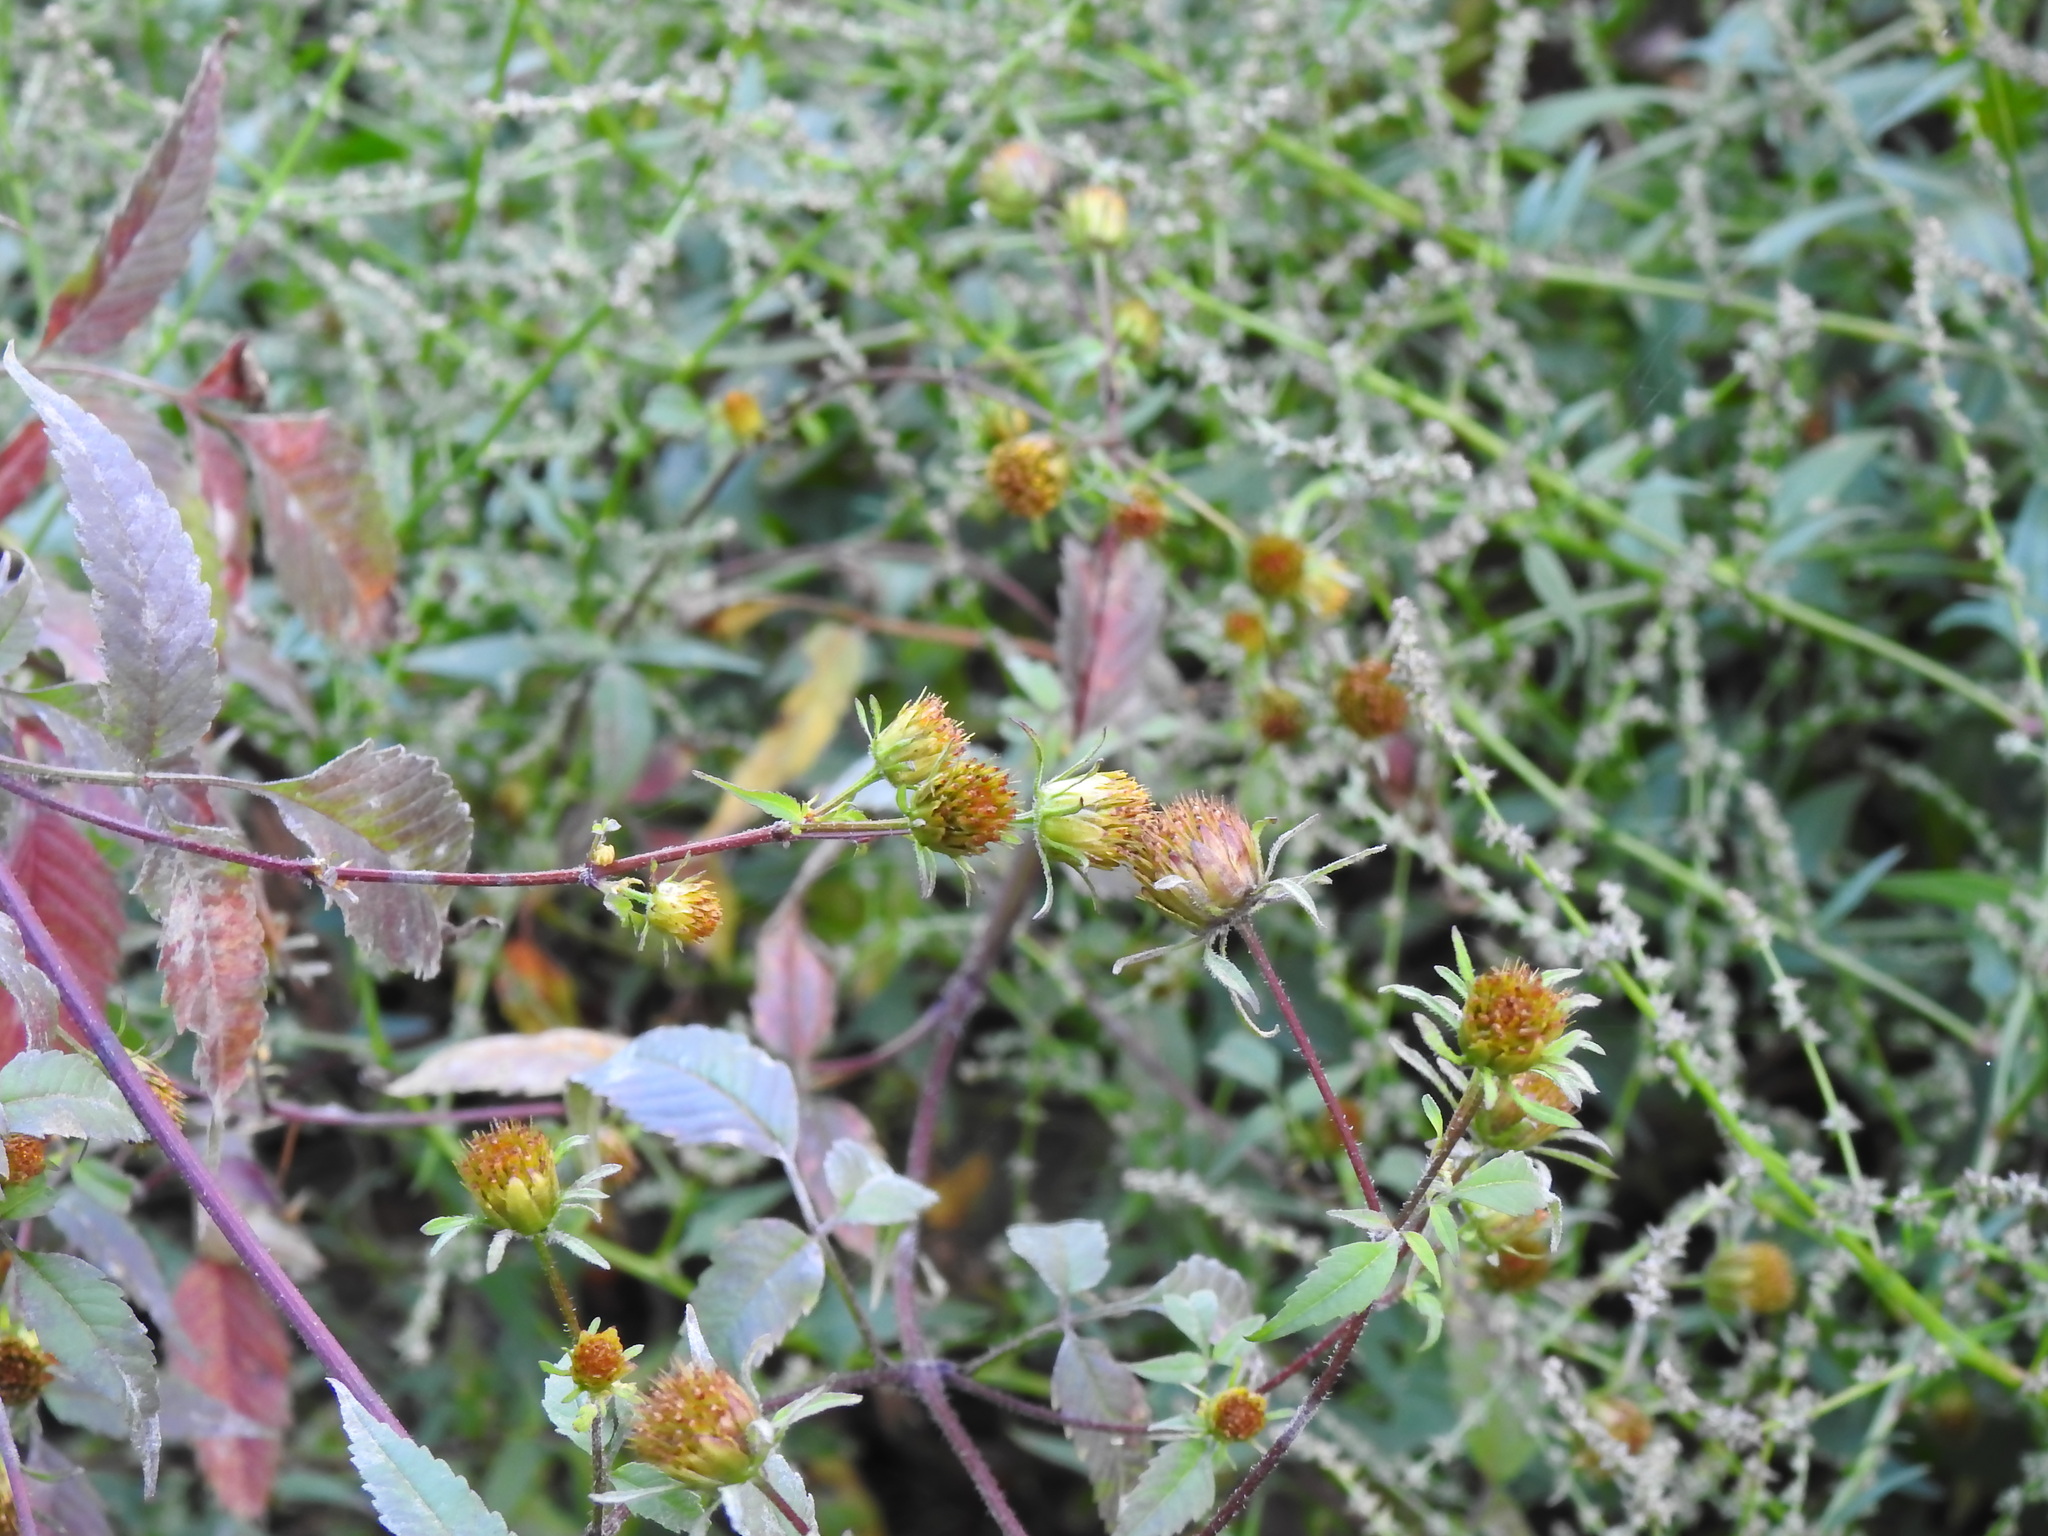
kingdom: Plantae
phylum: Tracheophyta
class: Magnoliopsida
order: Asterales
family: Asteraceae
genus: Bidens
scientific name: Bidens frondosa
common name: Beggarticks
